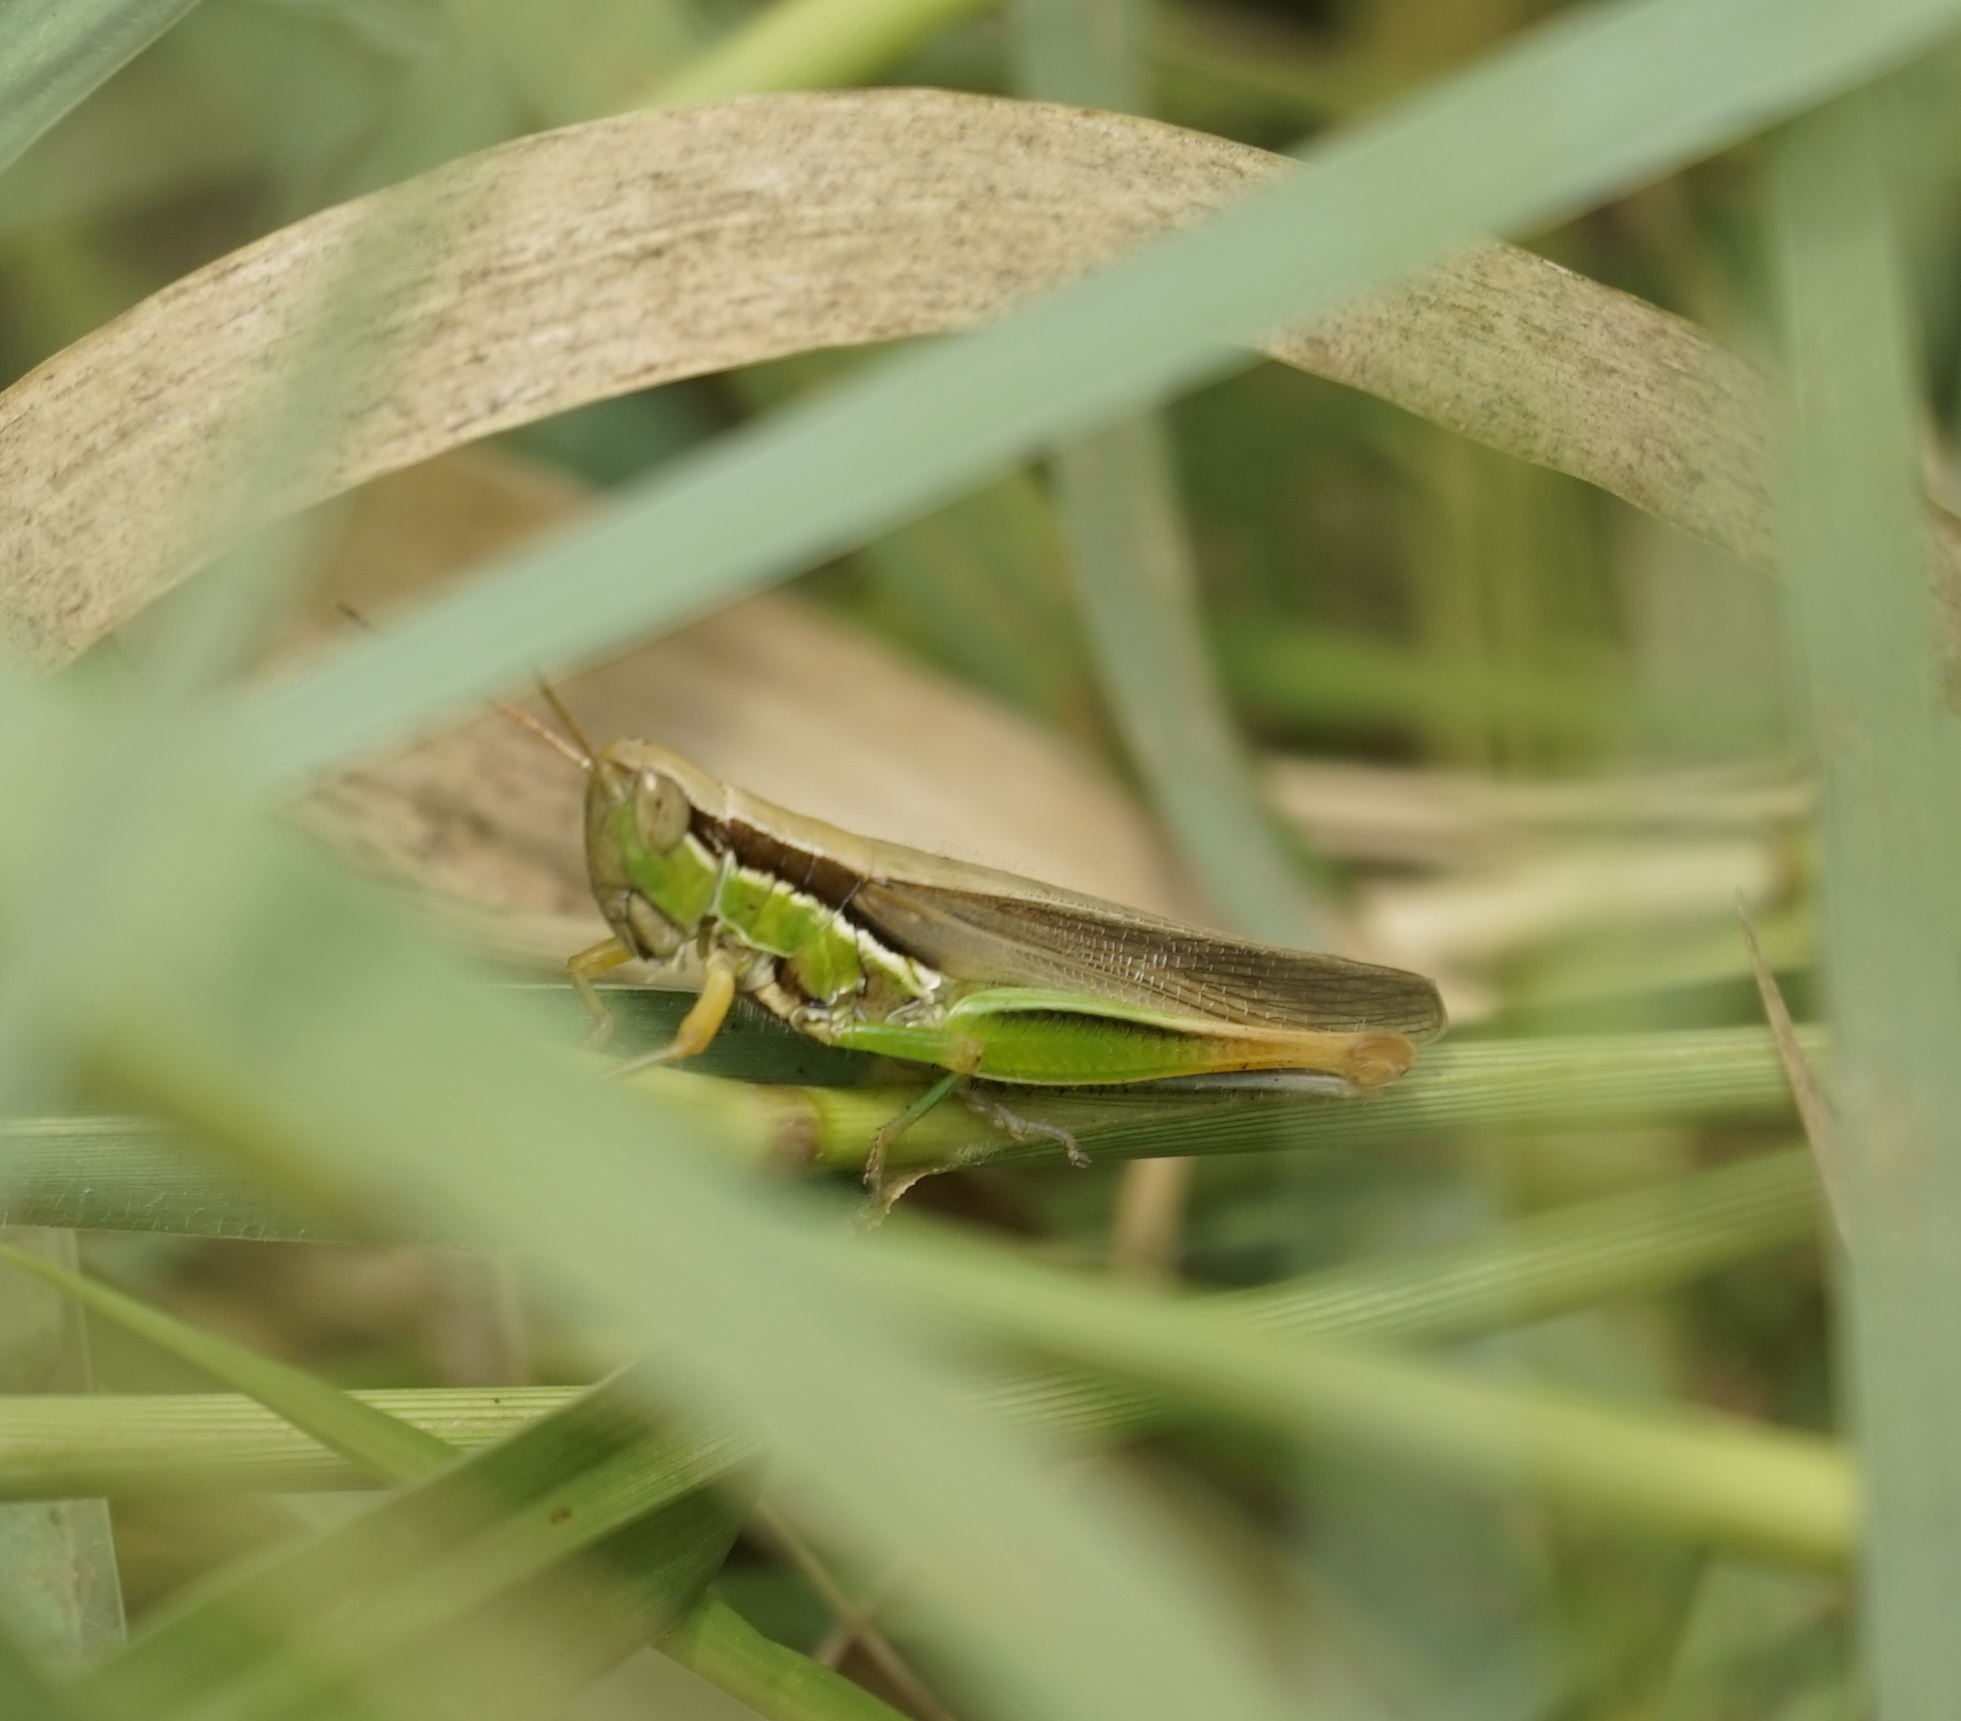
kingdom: Animalia
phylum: Arthropoda
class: Insecta
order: Orthoptera
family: Acrididae
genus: Bermius
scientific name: Bermius brachycerus
